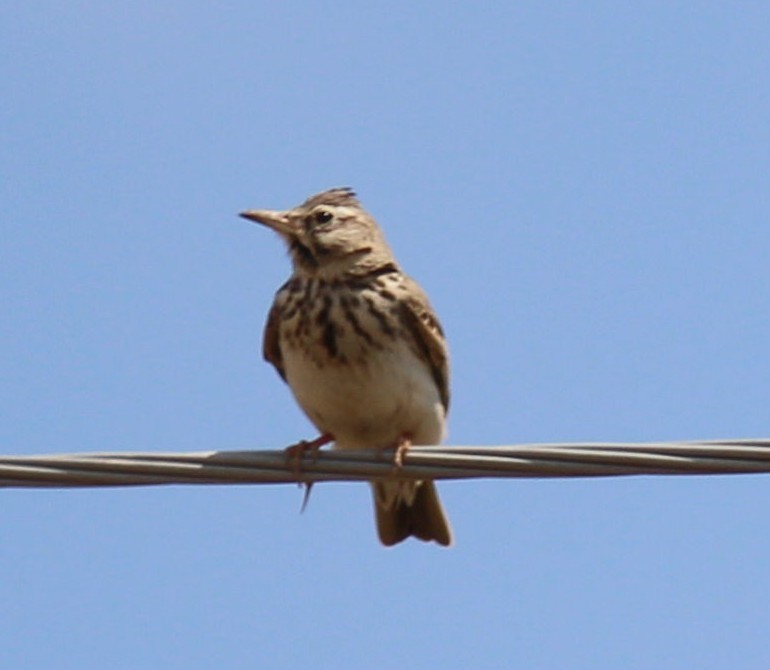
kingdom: Animalia
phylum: Chordata
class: Aves
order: Passeriformes
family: Alaudidae
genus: Lullula
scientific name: Lullula arborea
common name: Woodlark
